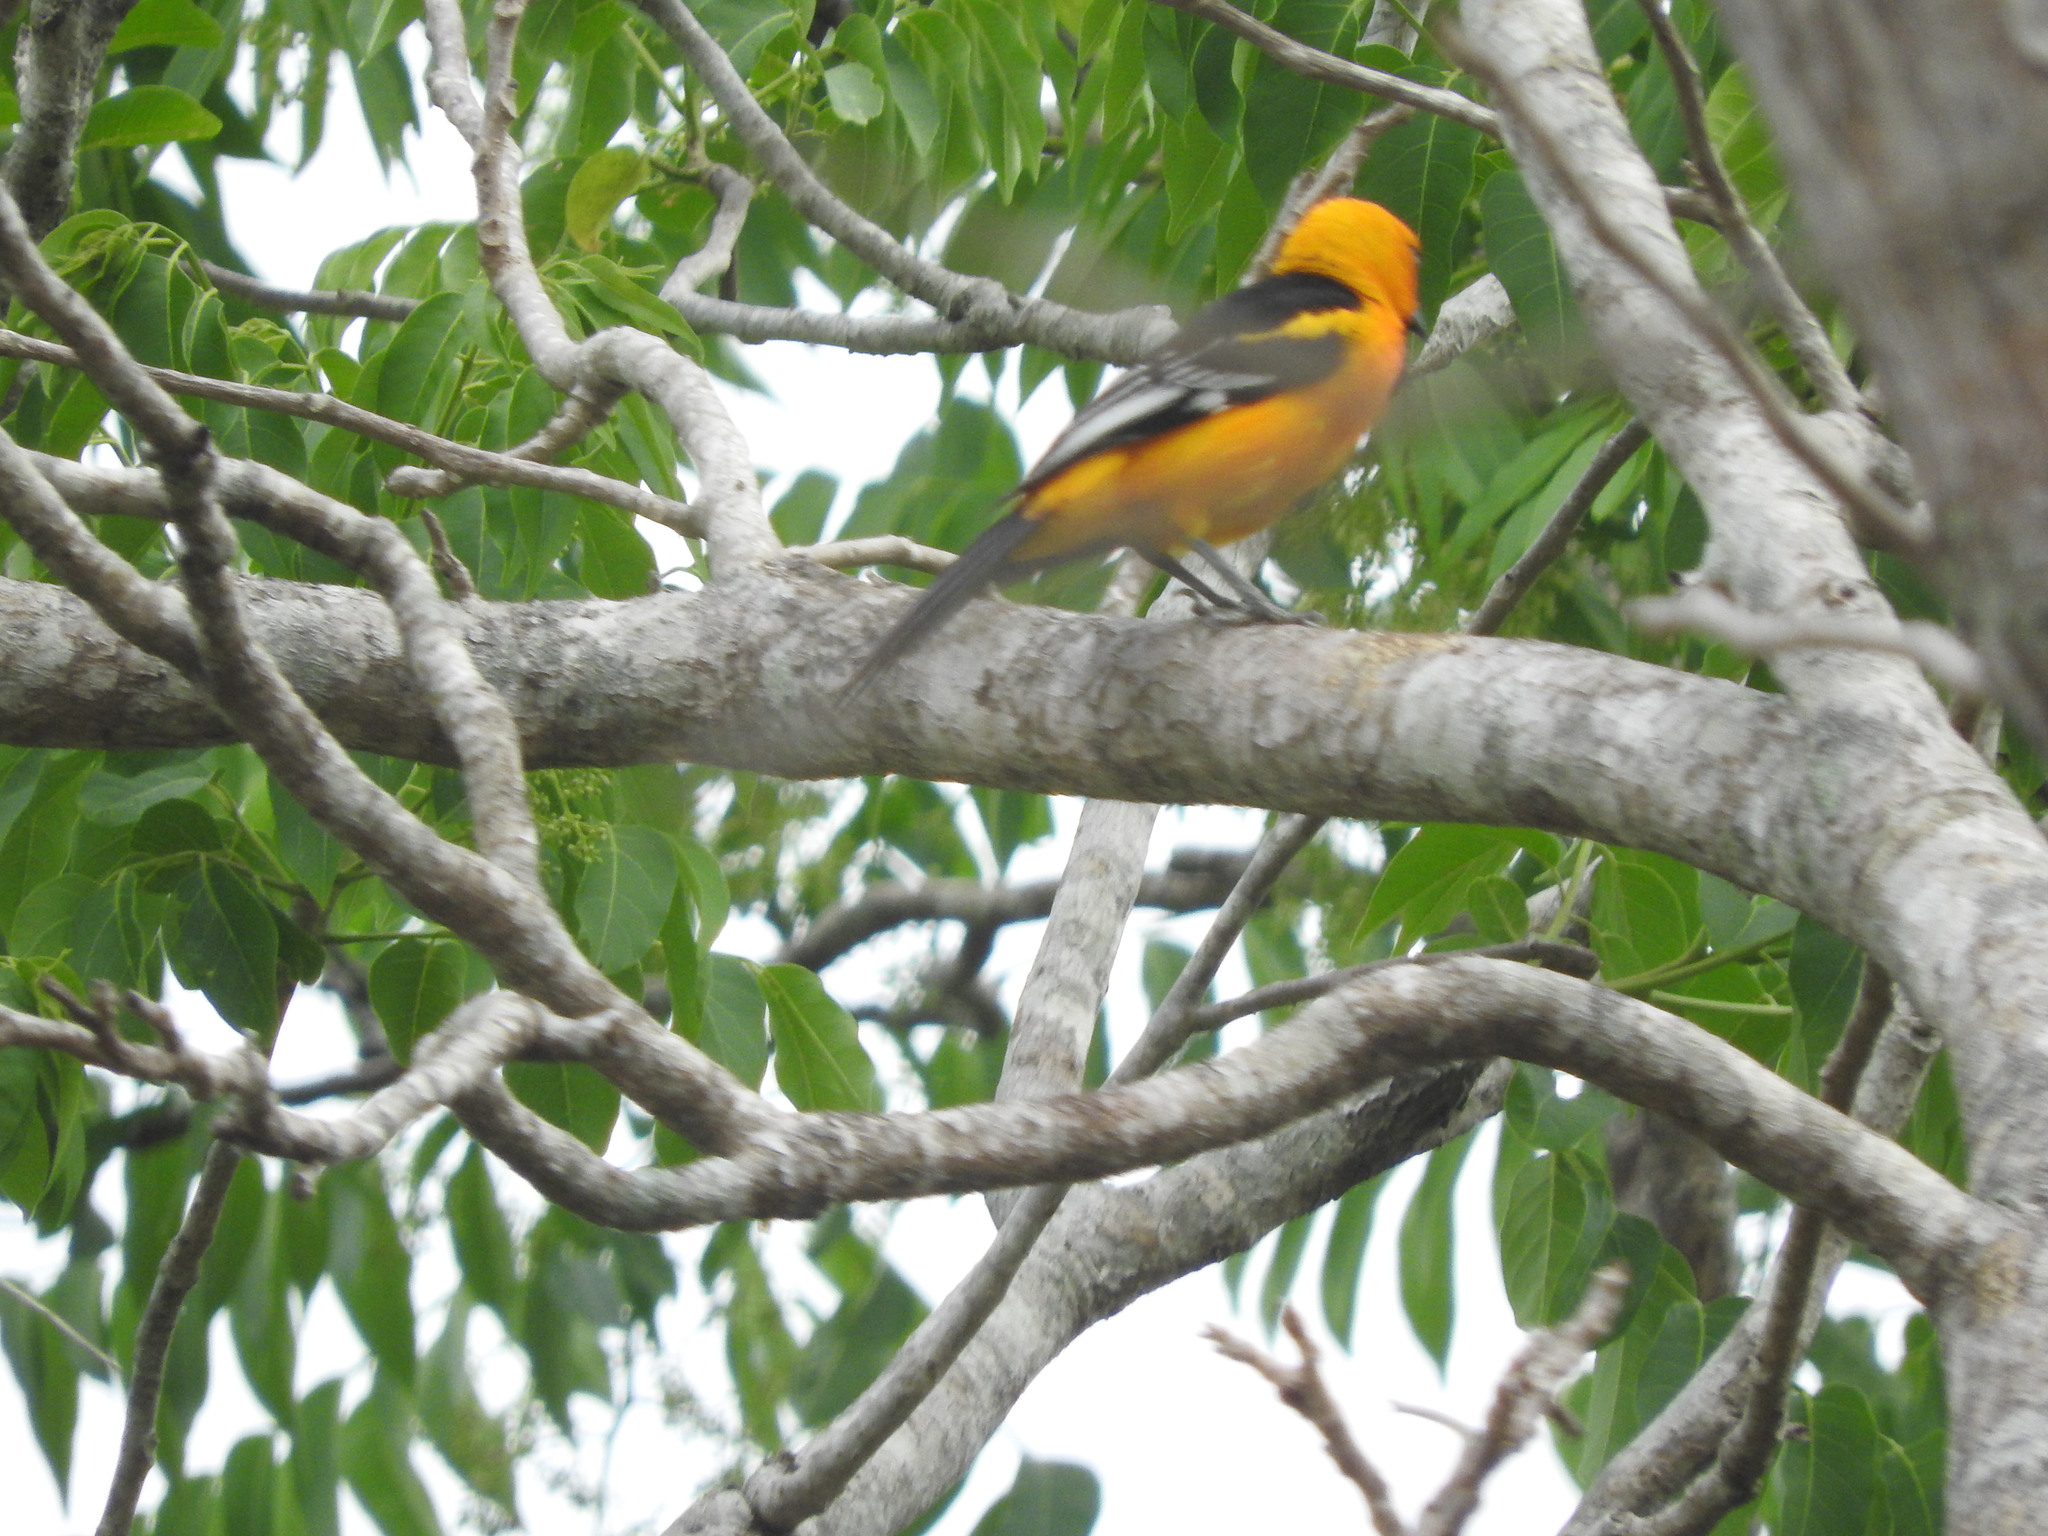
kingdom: Animalia
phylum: Chordata
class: Aves
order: Passeriformes
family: Icteridae
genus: Icterus
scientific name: Icterus gularis
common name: Altamira oriole
